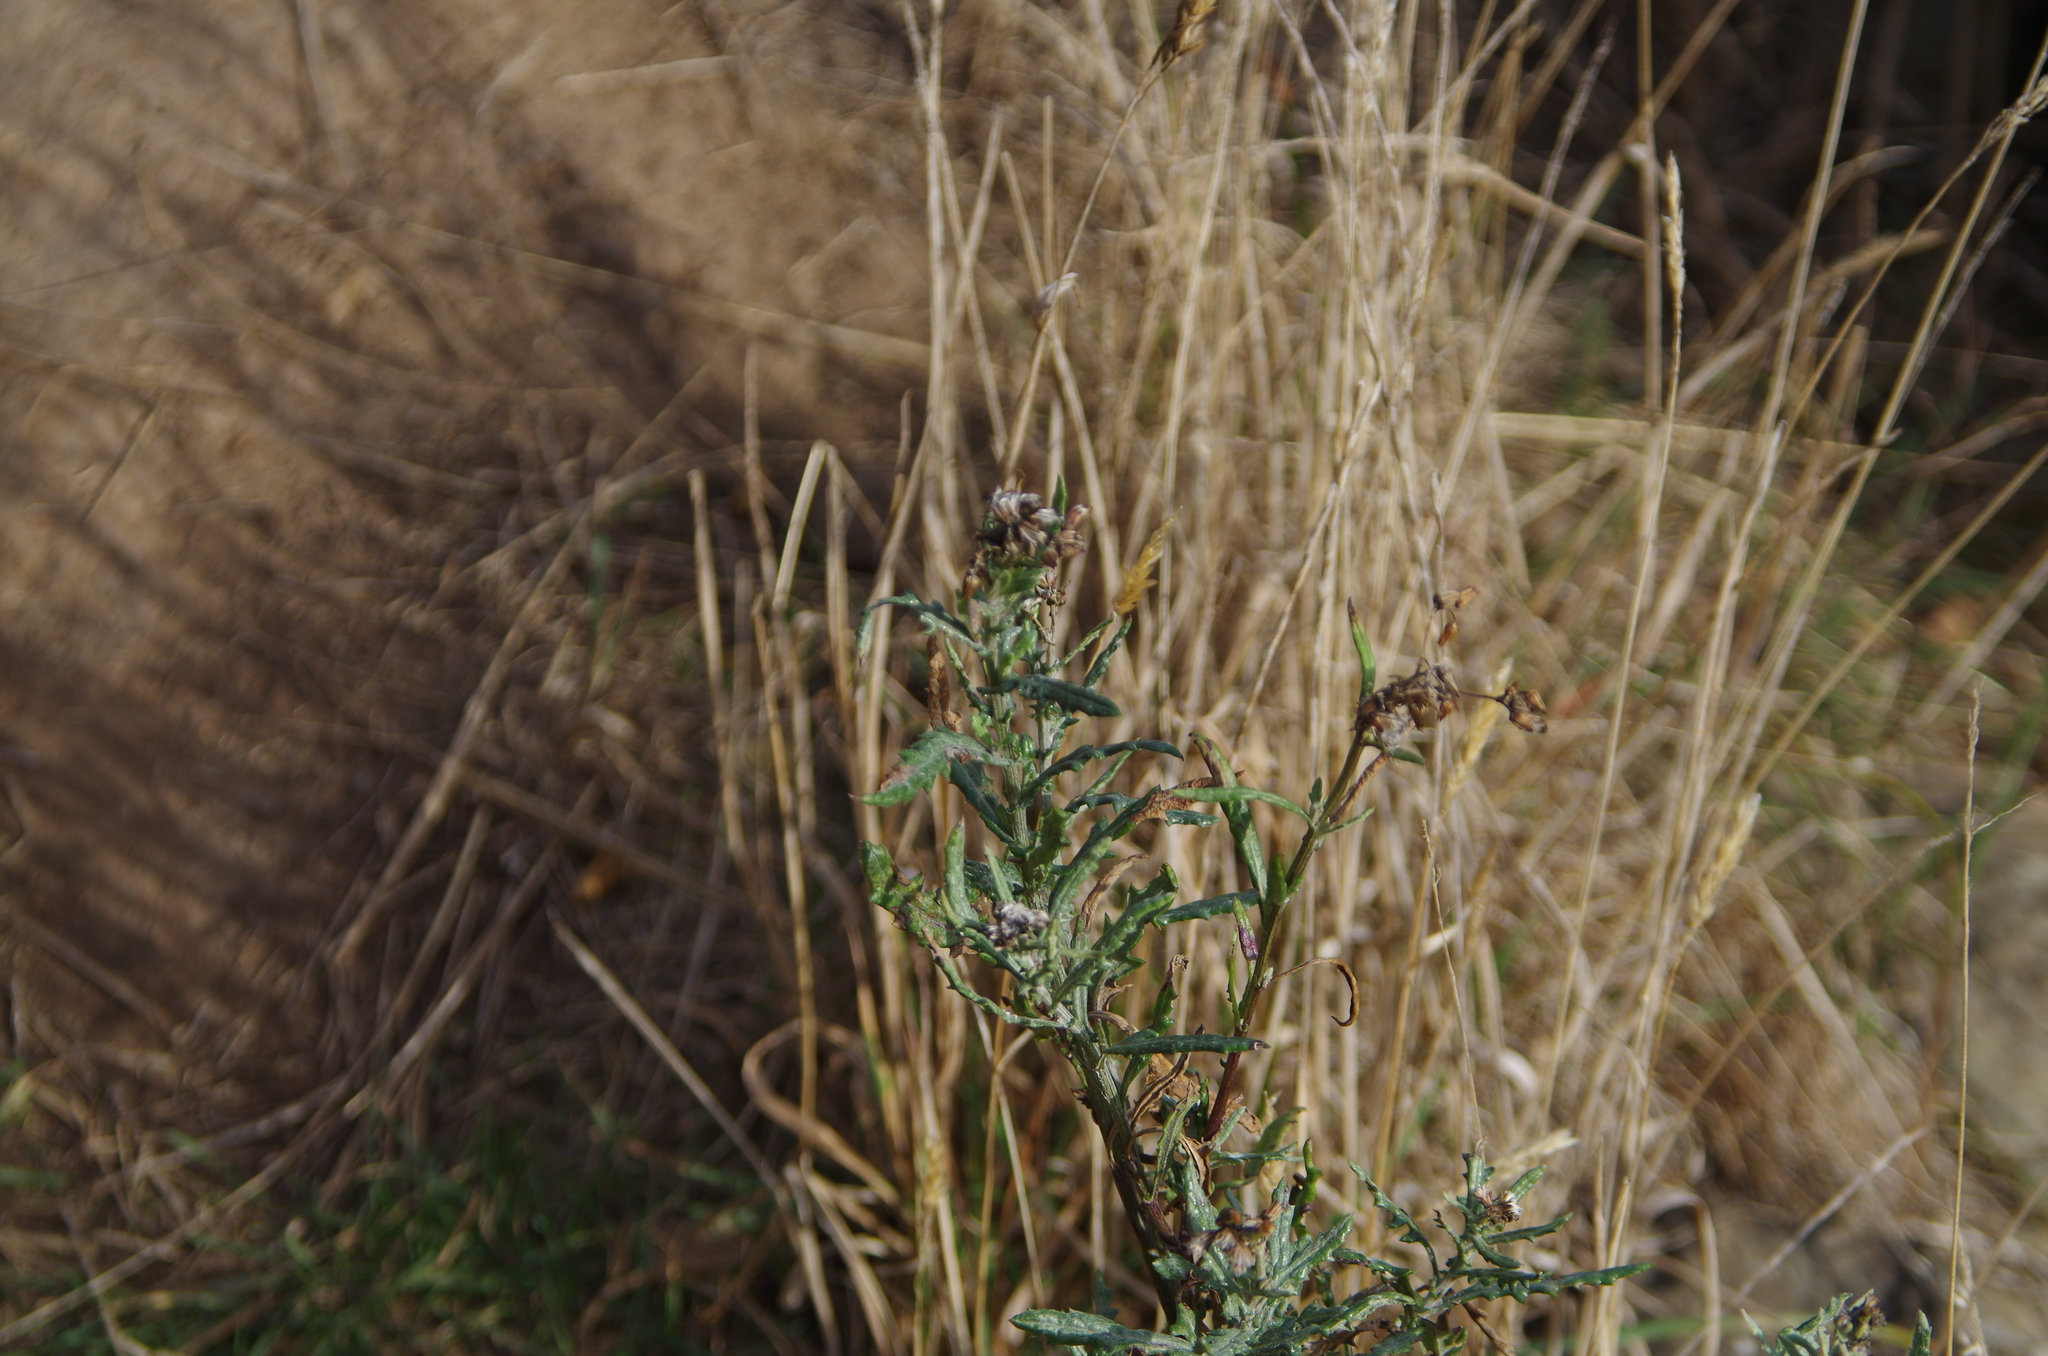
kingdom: Plantae
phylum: Tracheophyta
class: Magnoliopsida
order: Asterales
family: Asteraceae
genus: Senecio
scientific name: Senecio glomeratus
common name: Cutleaf burnweed
